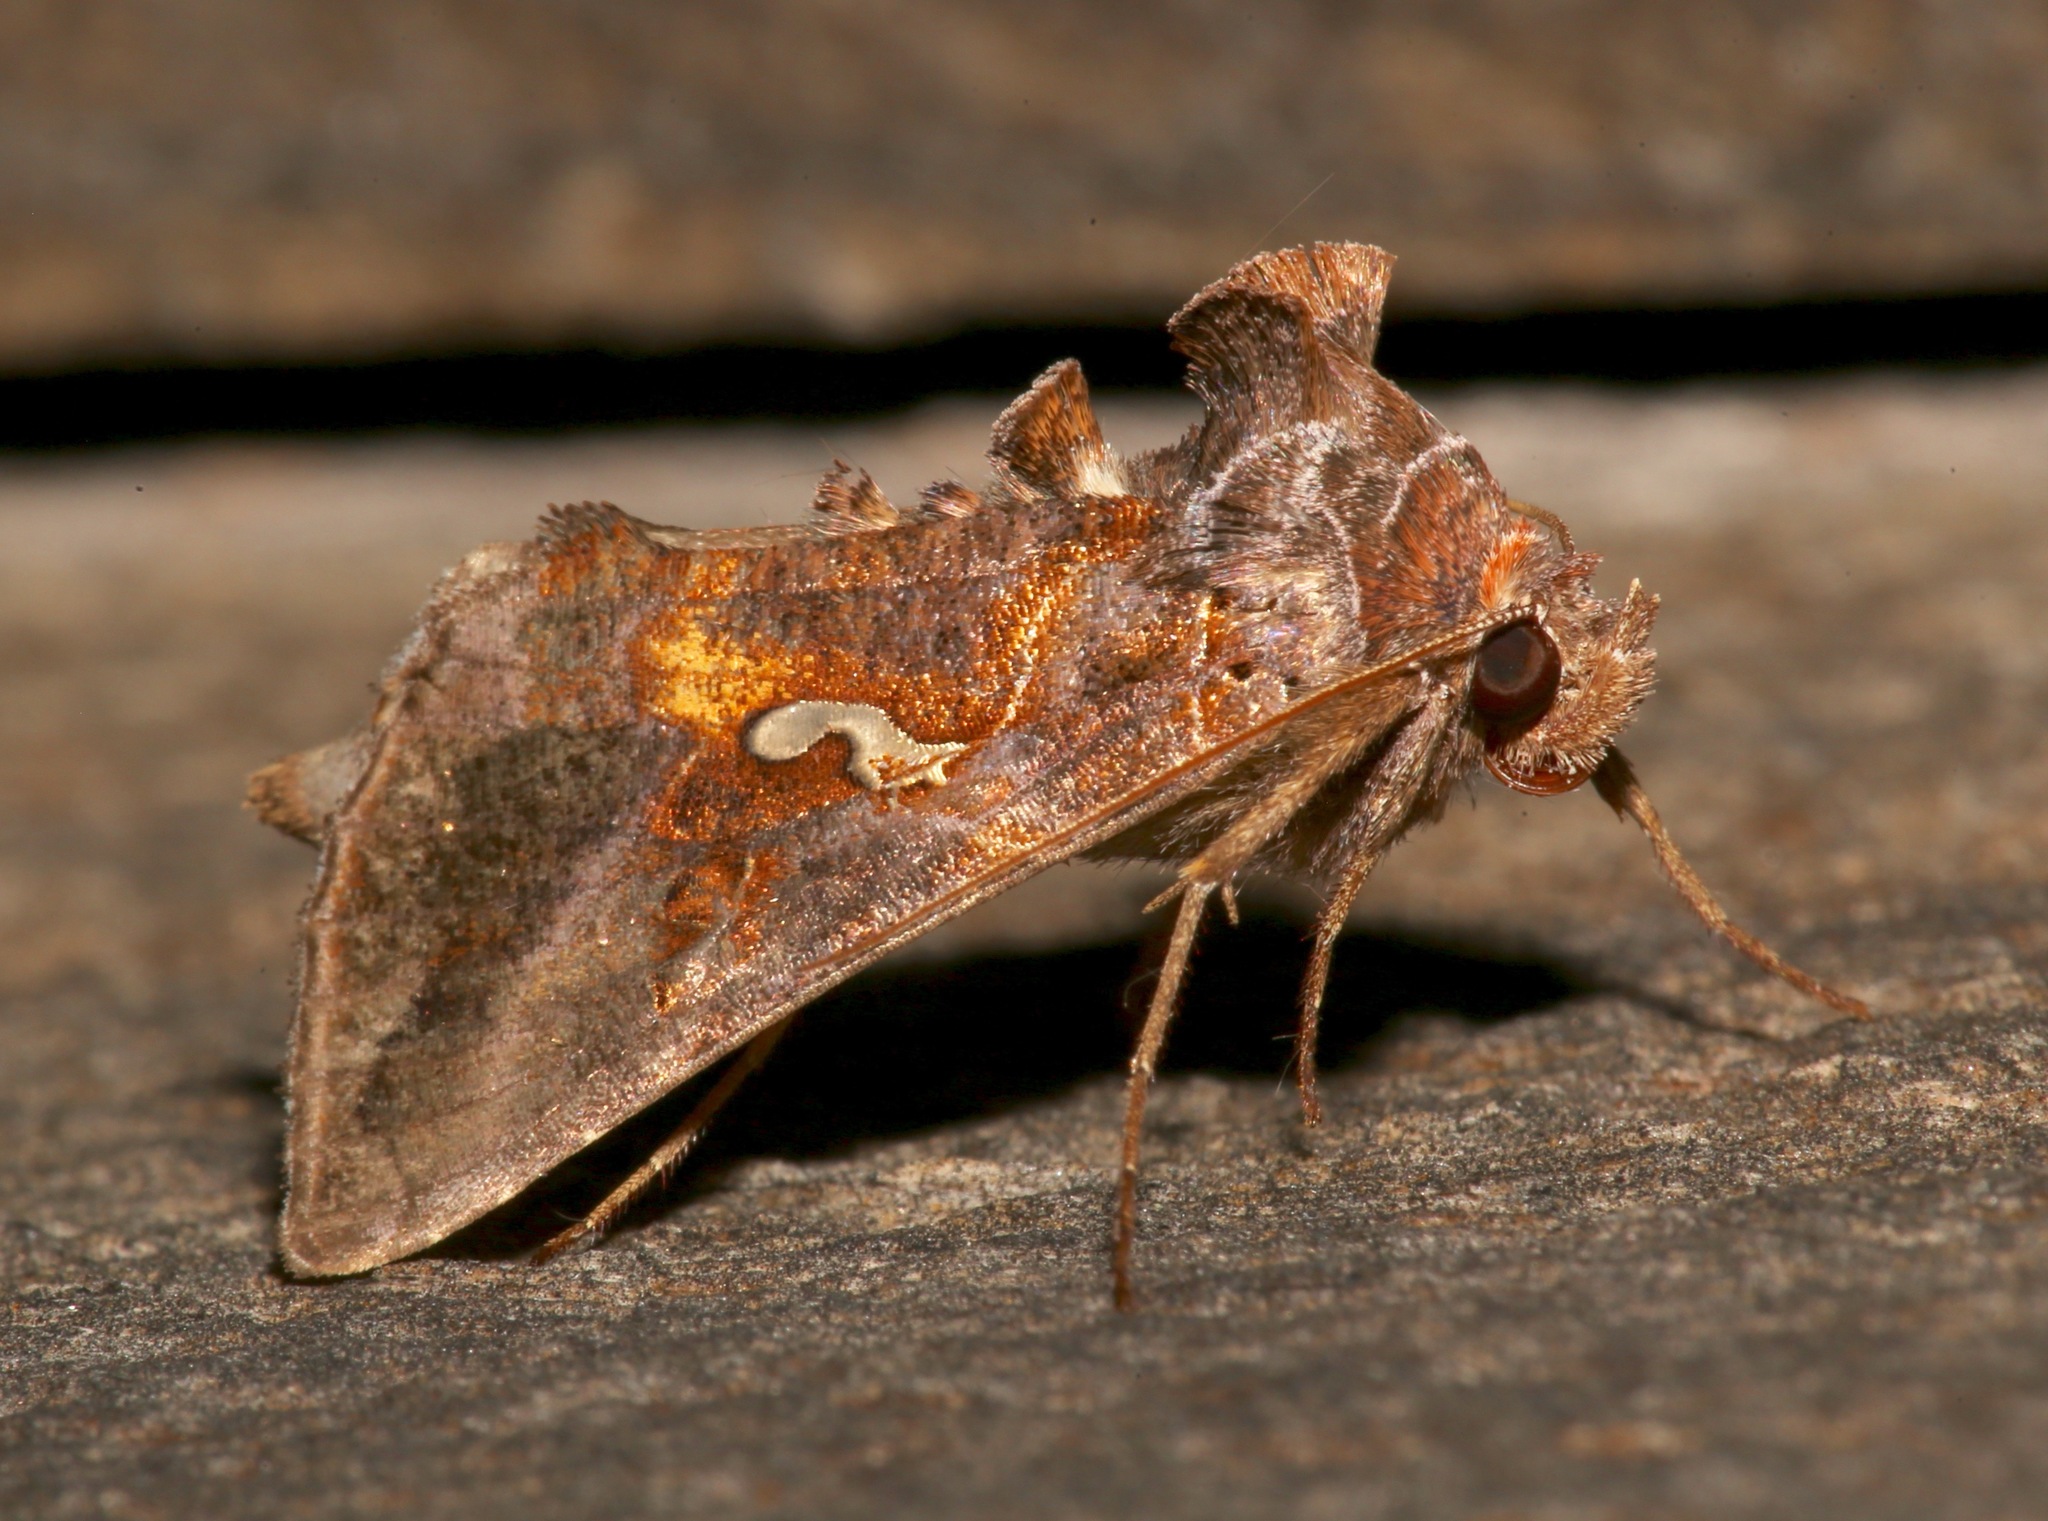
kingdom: Animalia
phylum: Arthropoda
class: Insecta
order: Lepidoptera
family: Noctuidae
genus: Autographa
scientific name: Autographa precationis
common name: Common looper moth
